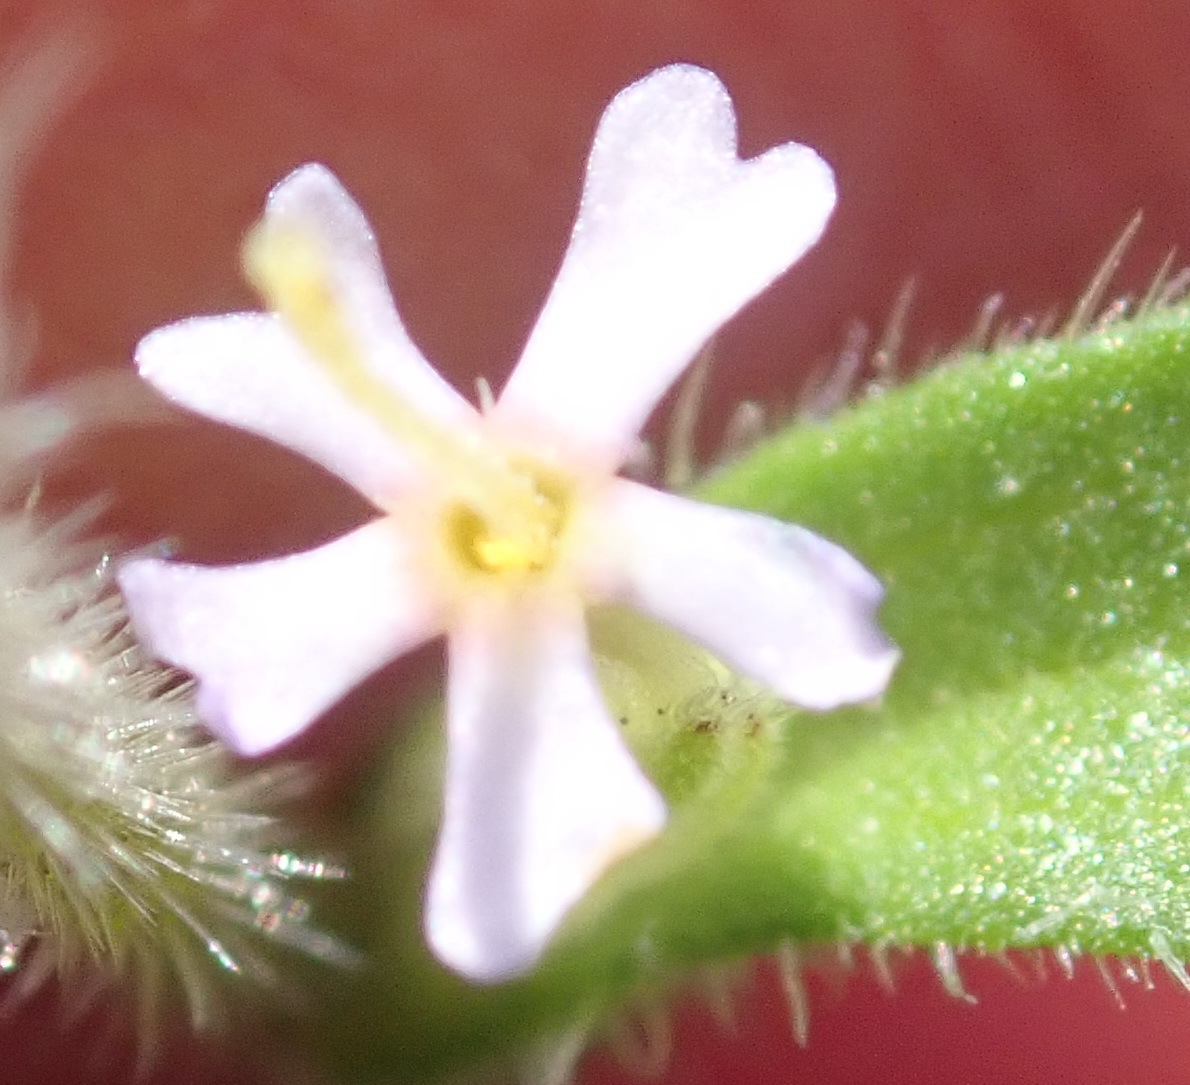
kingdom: Plantae
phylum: Tracheophyta
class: Magnoliopsida
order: Lamiales
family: Scrophulariaceae
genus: Zaluzianskya
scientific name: Zaluzianskya gracilis
